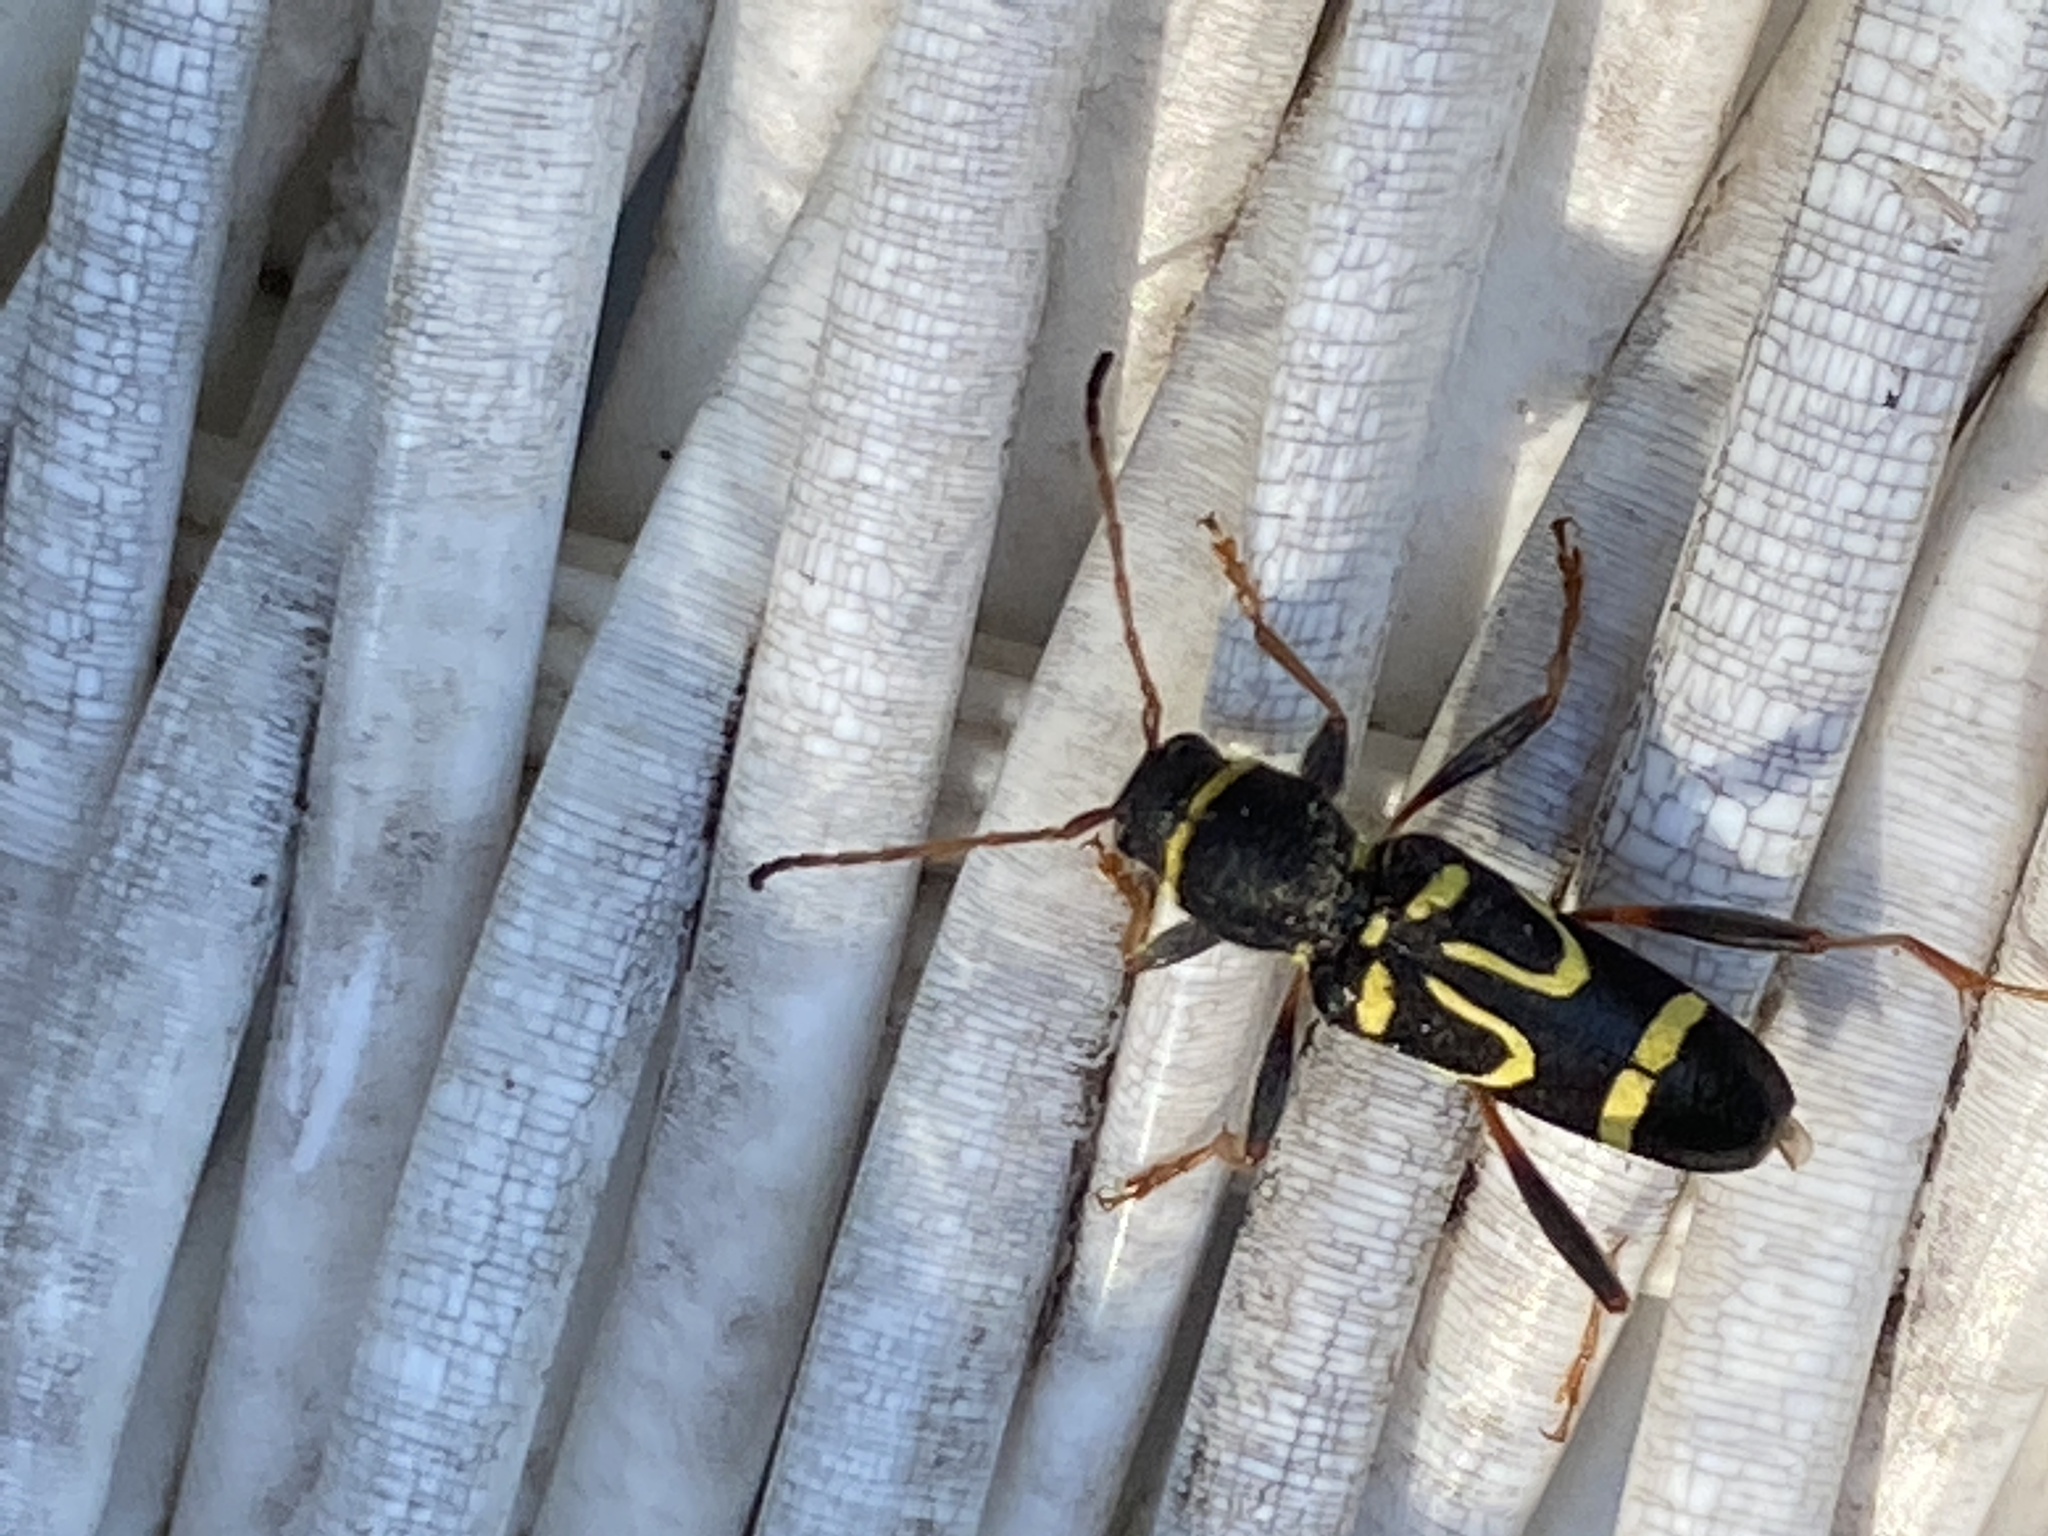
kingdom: Animalia
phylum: Arthropoda
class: Insecta
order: Coleoptera
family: Cerambycidae
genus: Clytus
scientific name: Clytus ruricola
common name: Round-necked longhorn beetle
